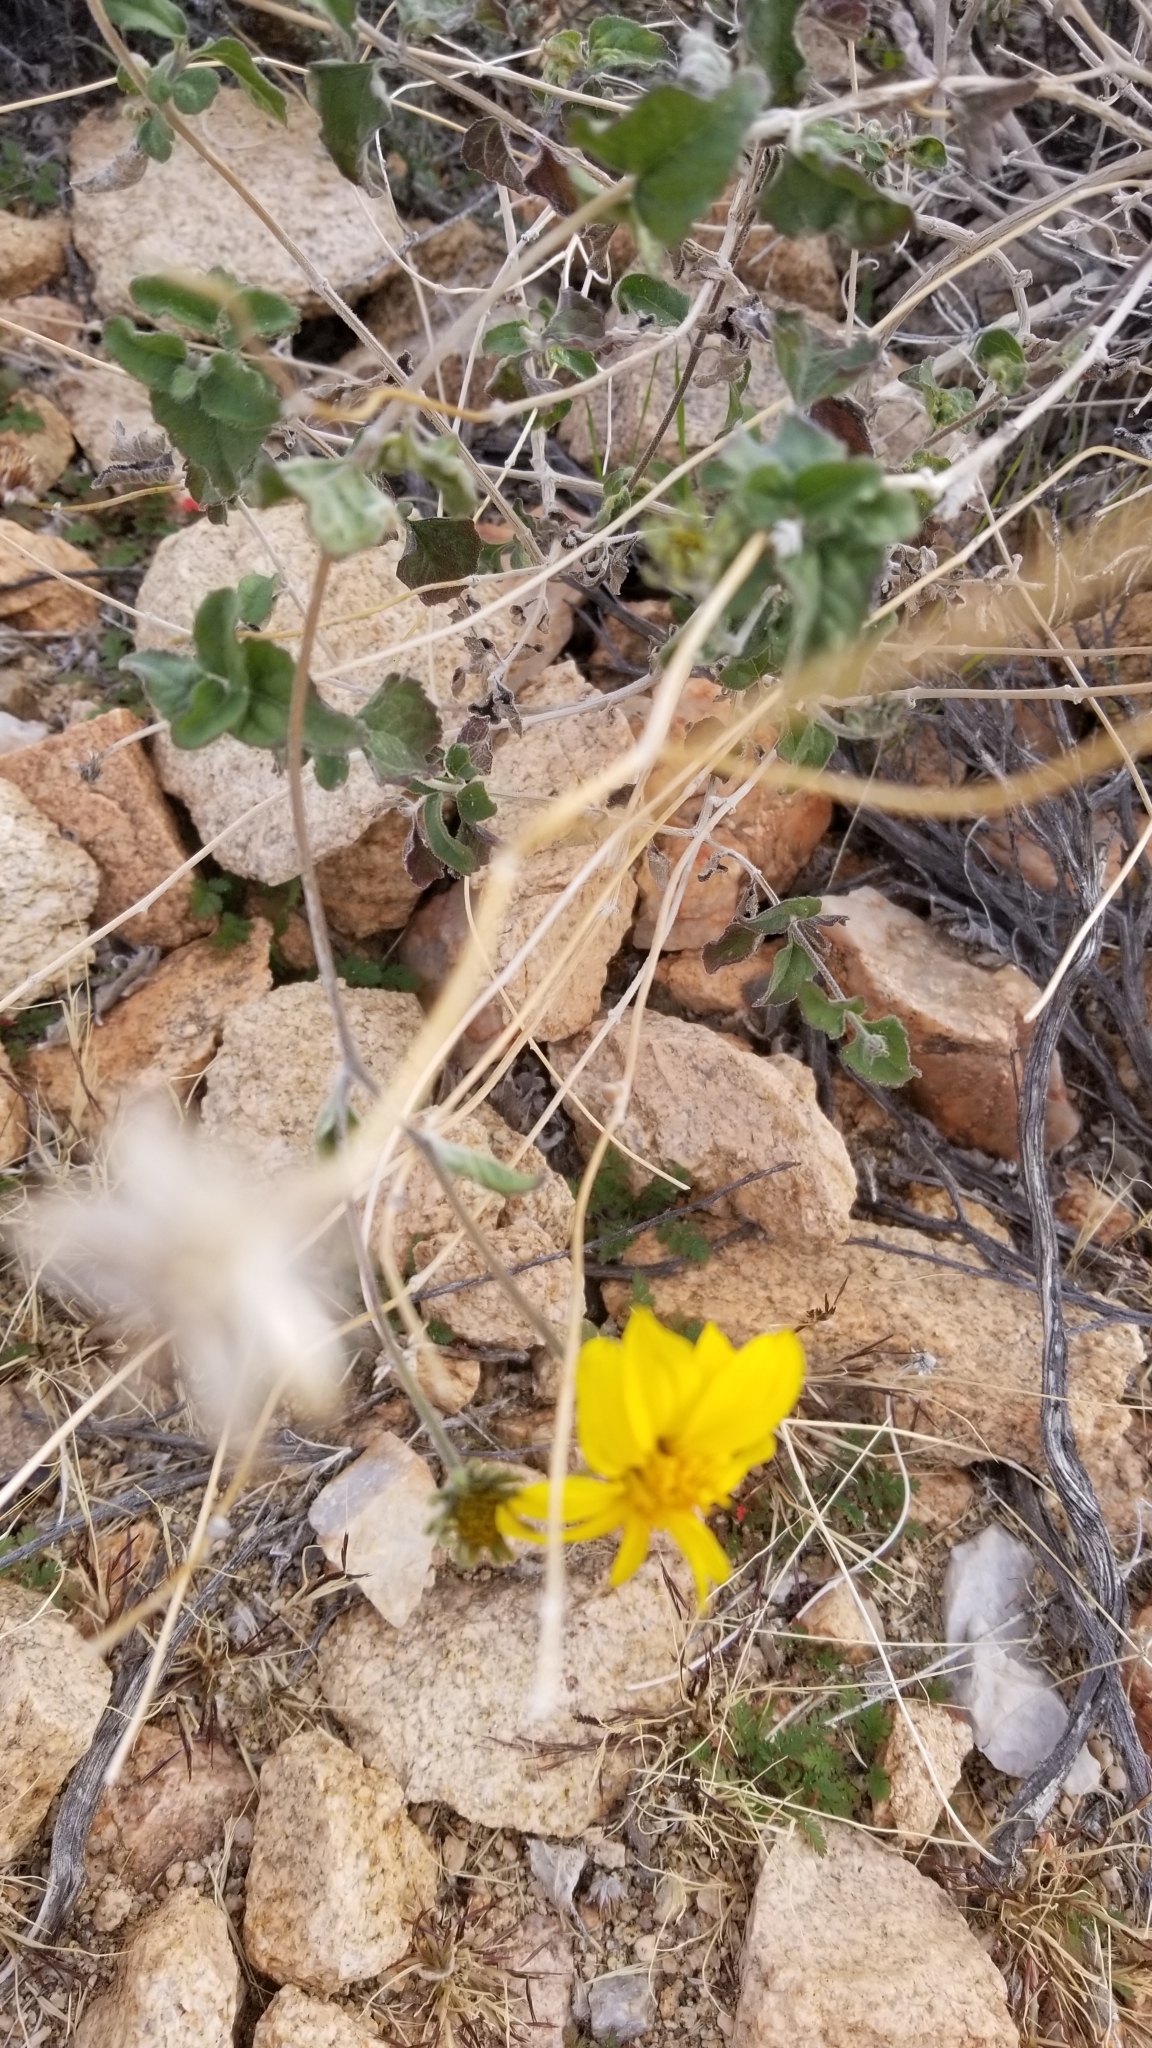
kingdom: Plantae
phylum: Tracheophyta
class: Magnoliopsida
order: Asterales
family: Asteraceae
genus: Bahiopsis
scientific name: Bahiopsis parishii
